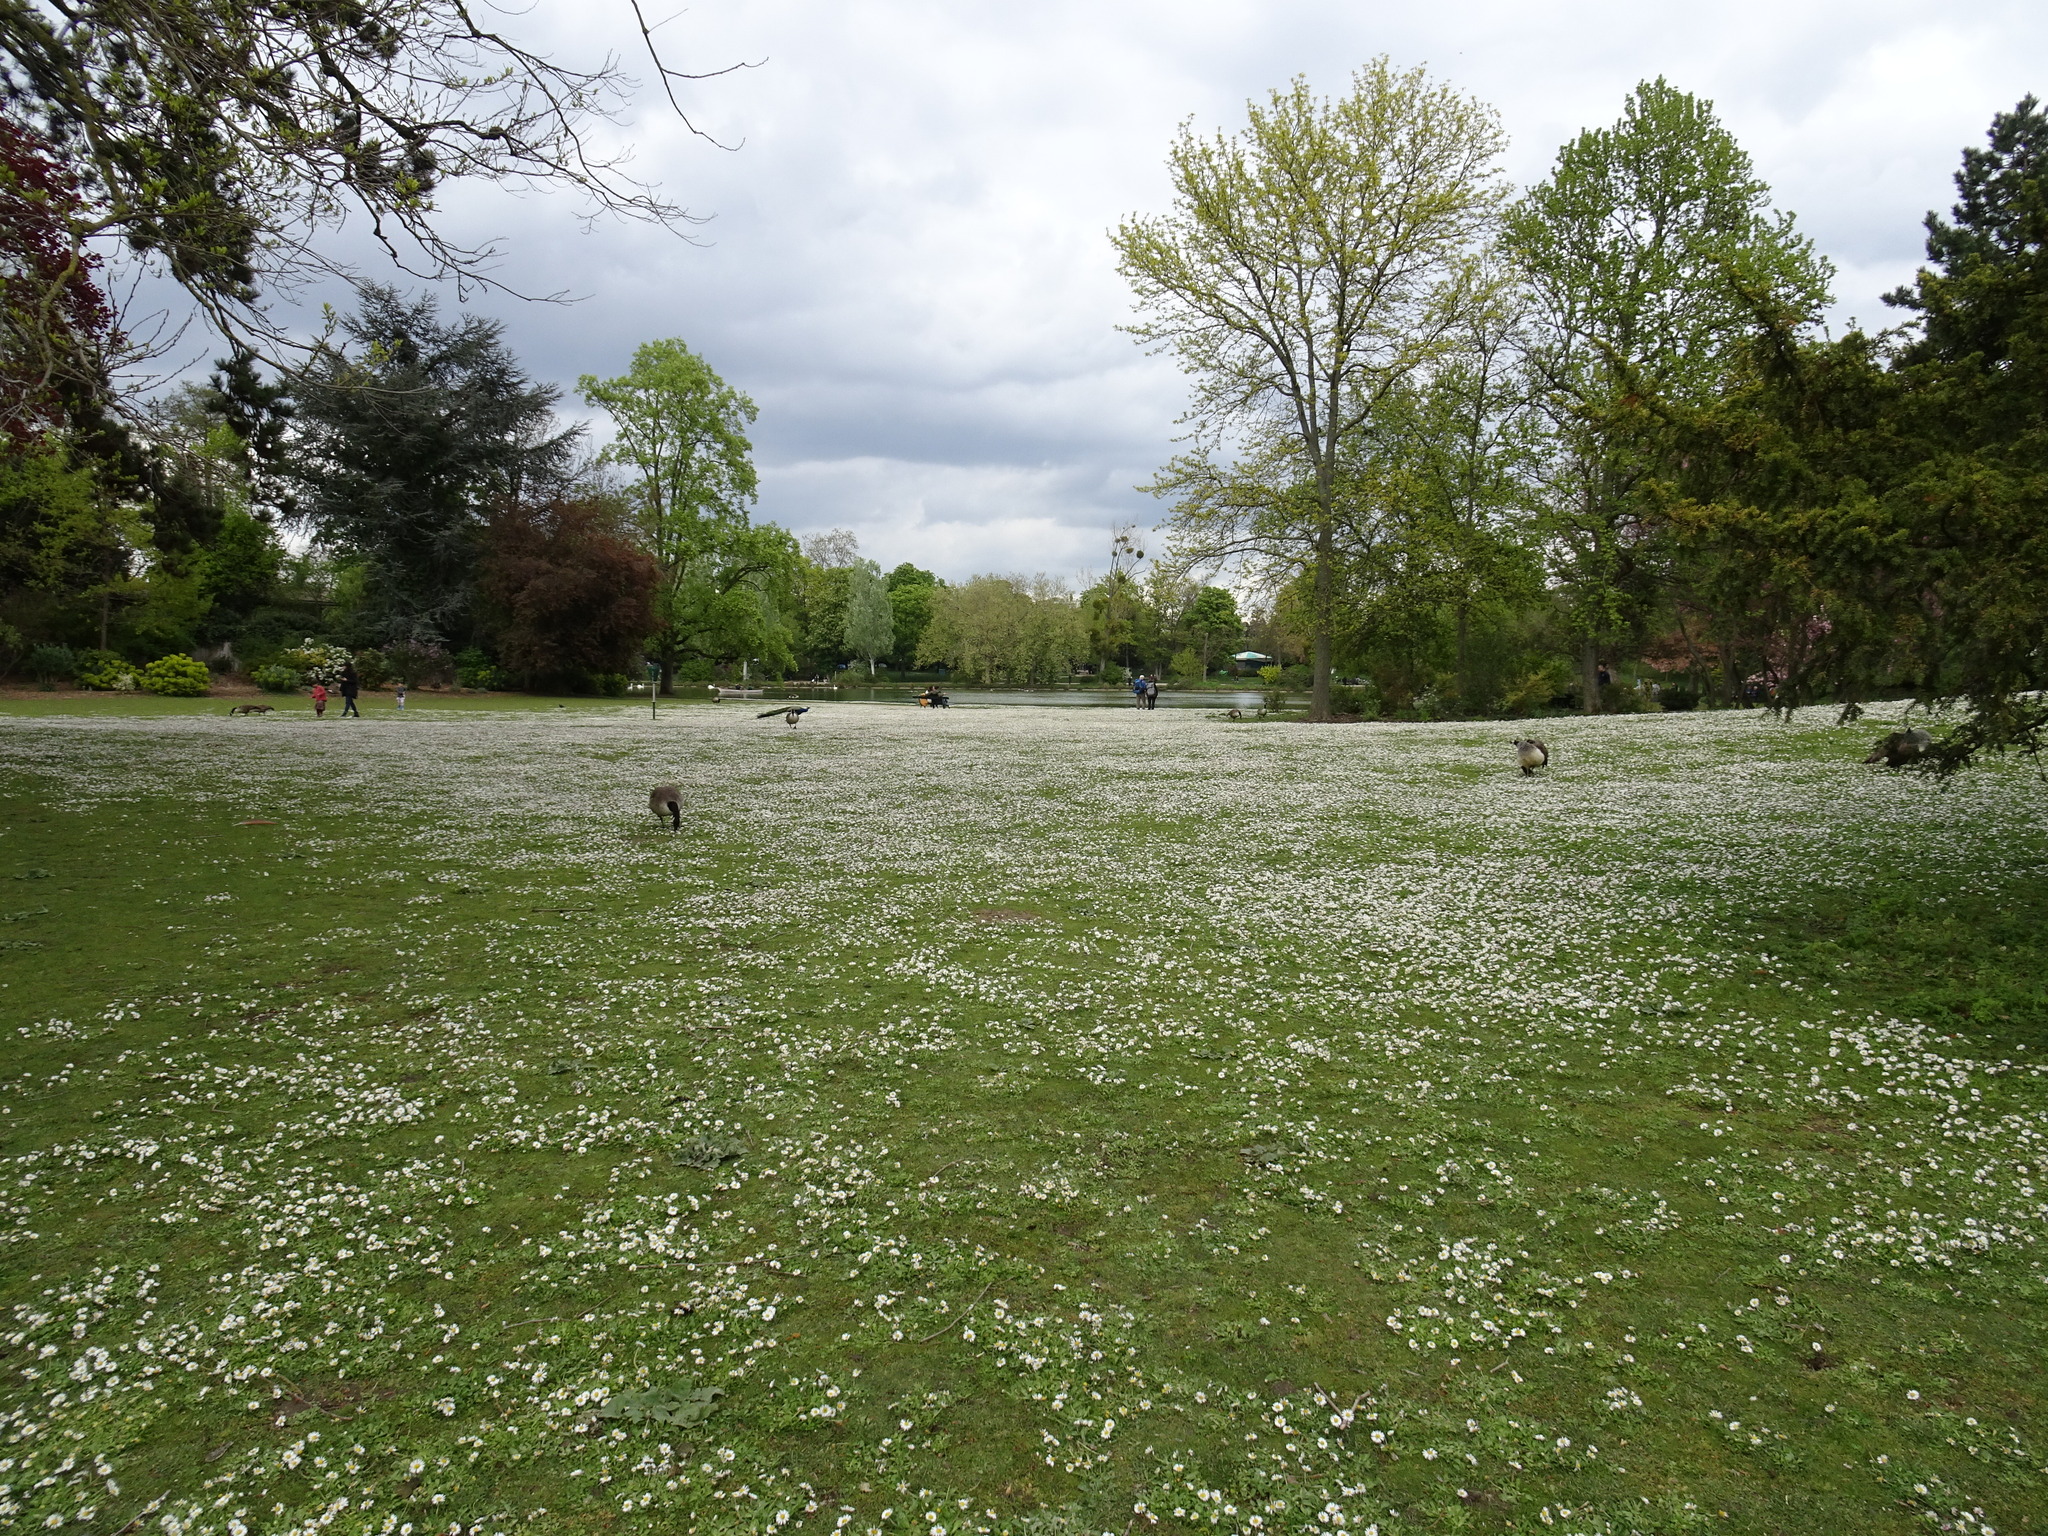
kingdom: Animalia
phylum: Chordata
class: Aves
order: Anseriformes
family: Anatidae
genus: Branta
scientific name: Branta canadensis
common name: Canada goose
